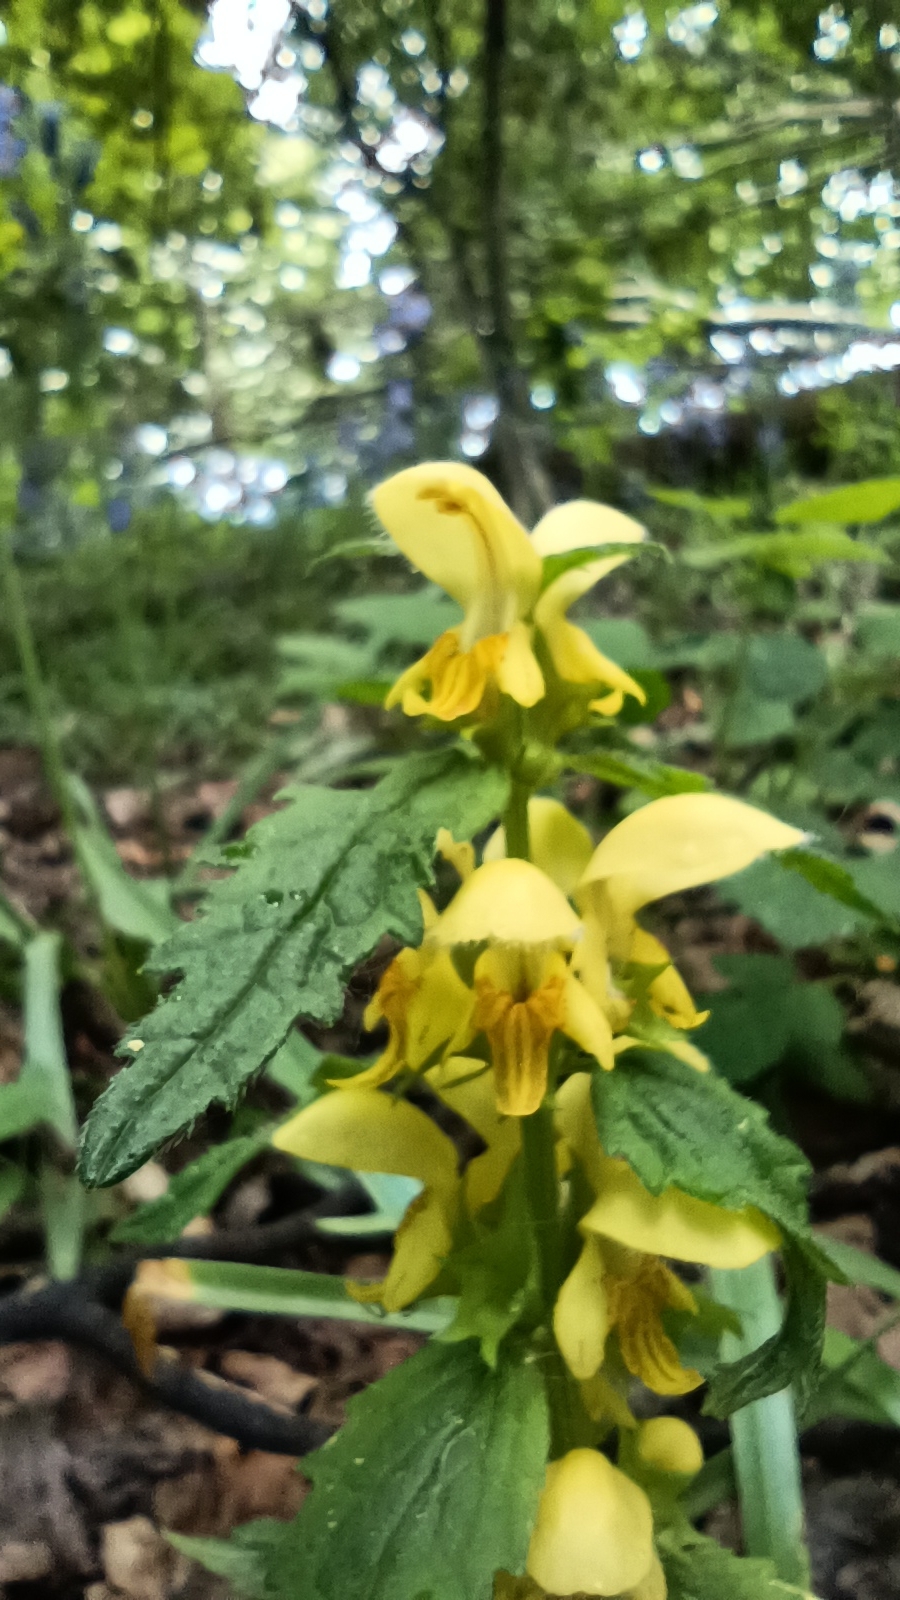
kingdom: Plantae
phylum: Tracheophyta
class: Magnoliopsida
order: Lamiales
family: Lamiaceae
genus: Lamium
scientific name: Lamium galeobdolon
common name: Yellow archangel
